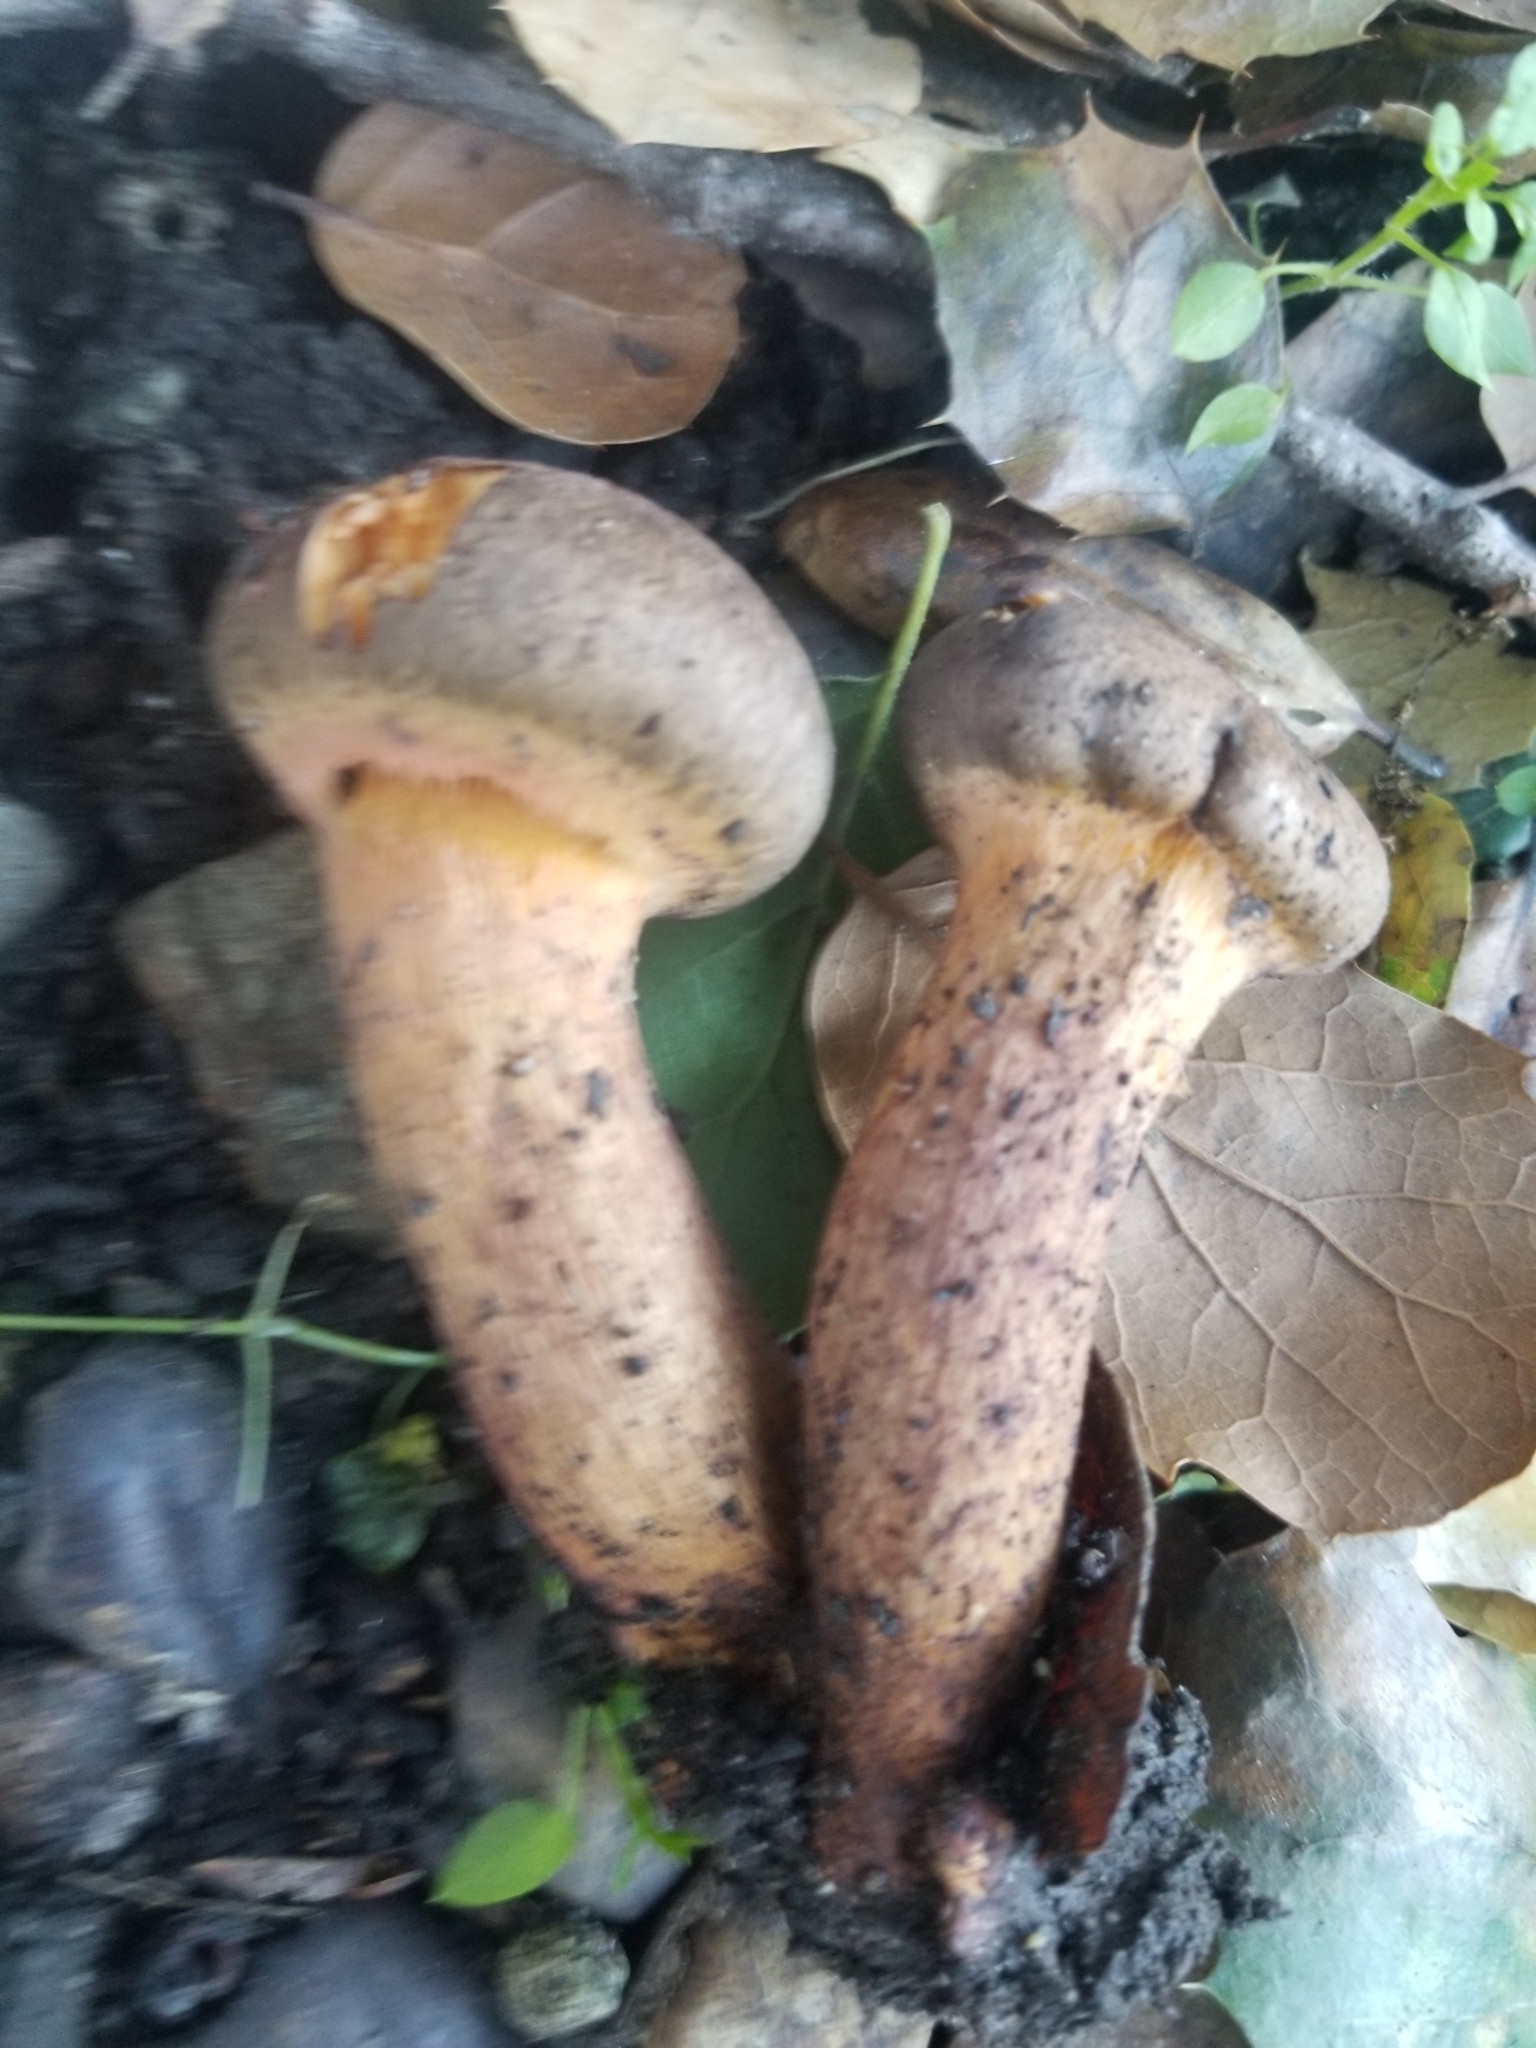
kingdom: Fungi
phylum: Basidiomycota
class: Agaricomycetes
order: Boletales
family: Gomphidiaceae
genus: Chroogomphus
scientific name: Chroogomphus vinicolor
